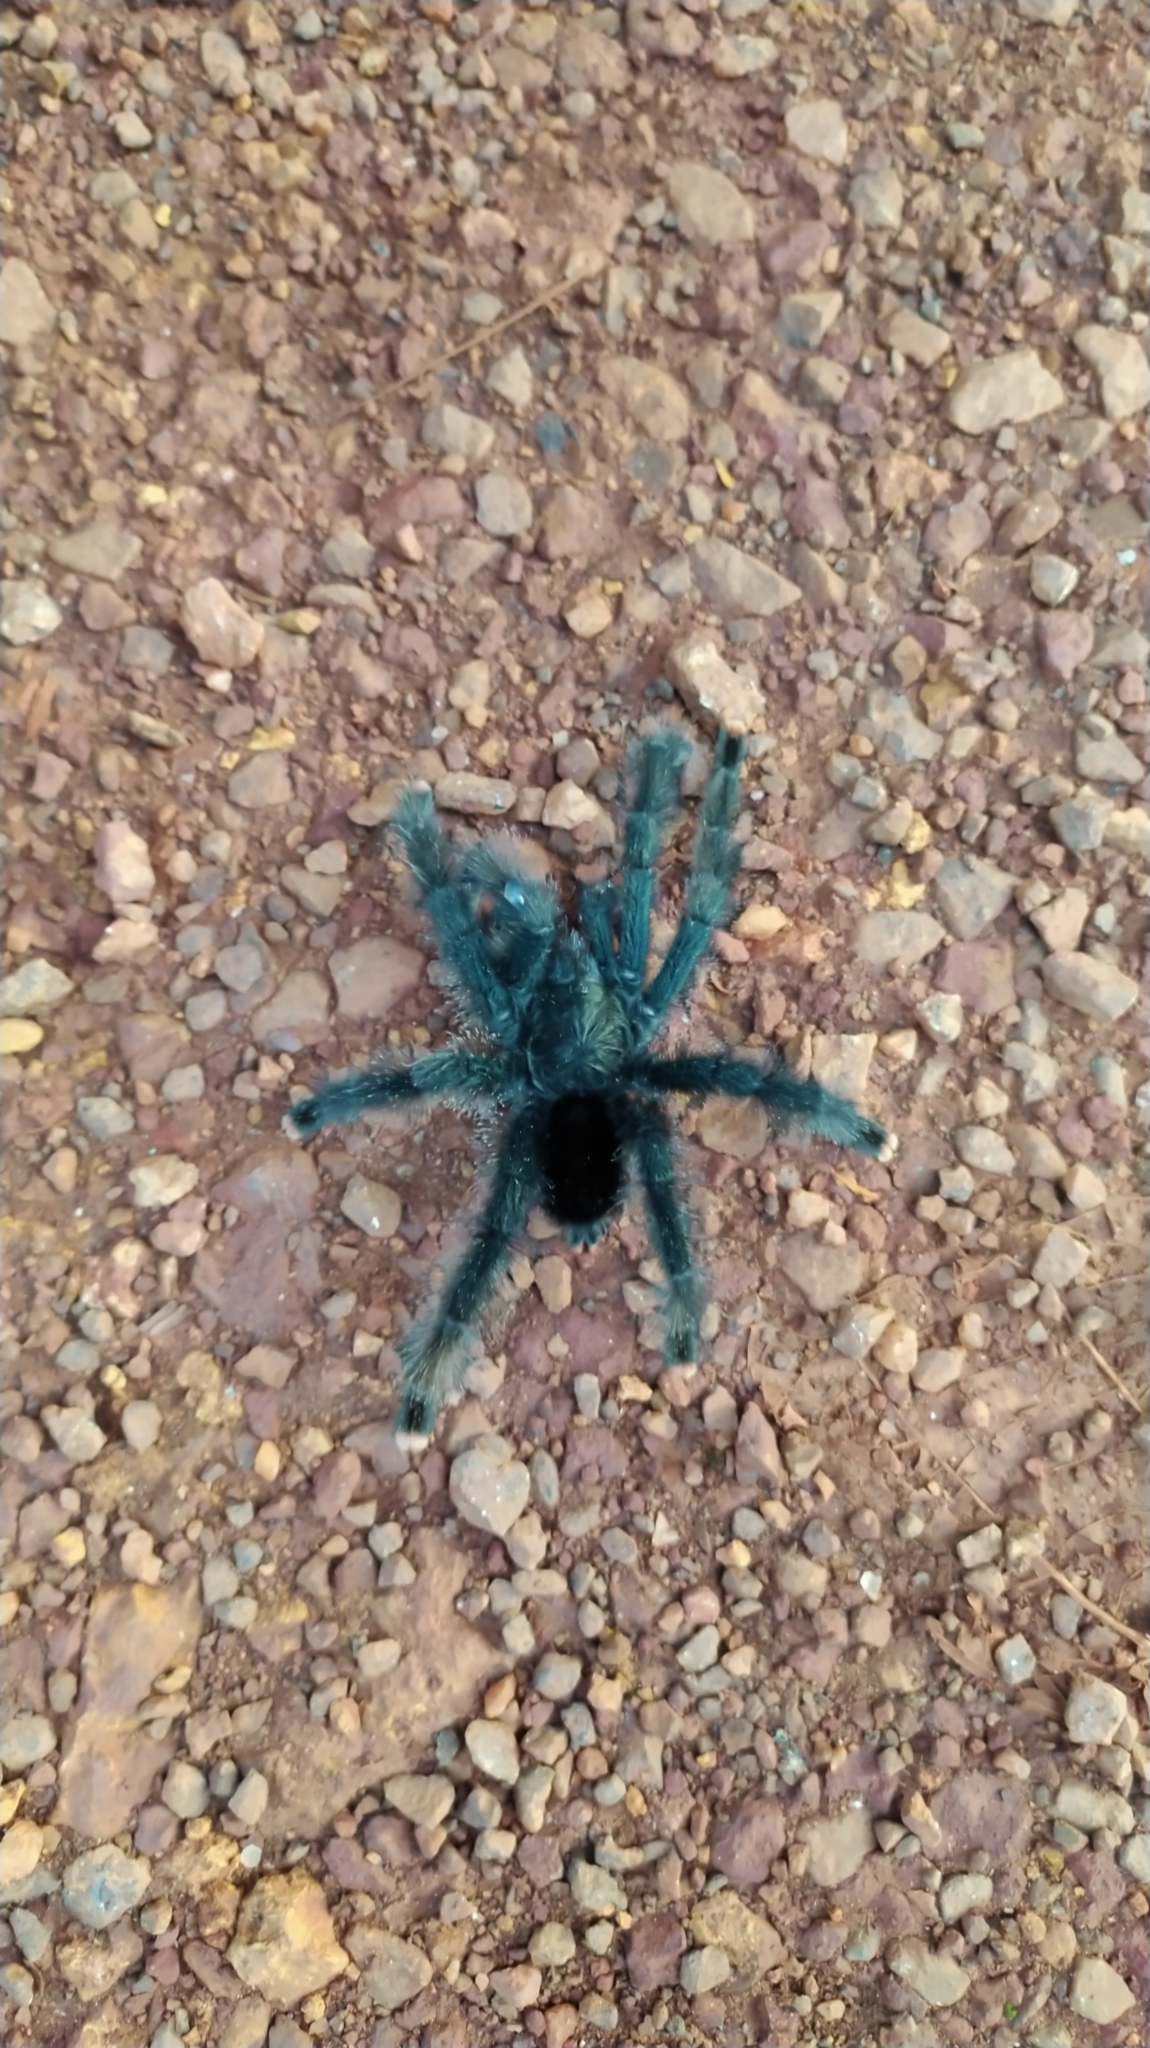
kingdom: Animalia
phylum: Arthropoda
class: Arachnida
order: Araneae
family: Theraphosidae
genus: Avicularia
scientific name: Avicularia avicularia
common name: Tarantula spiders
